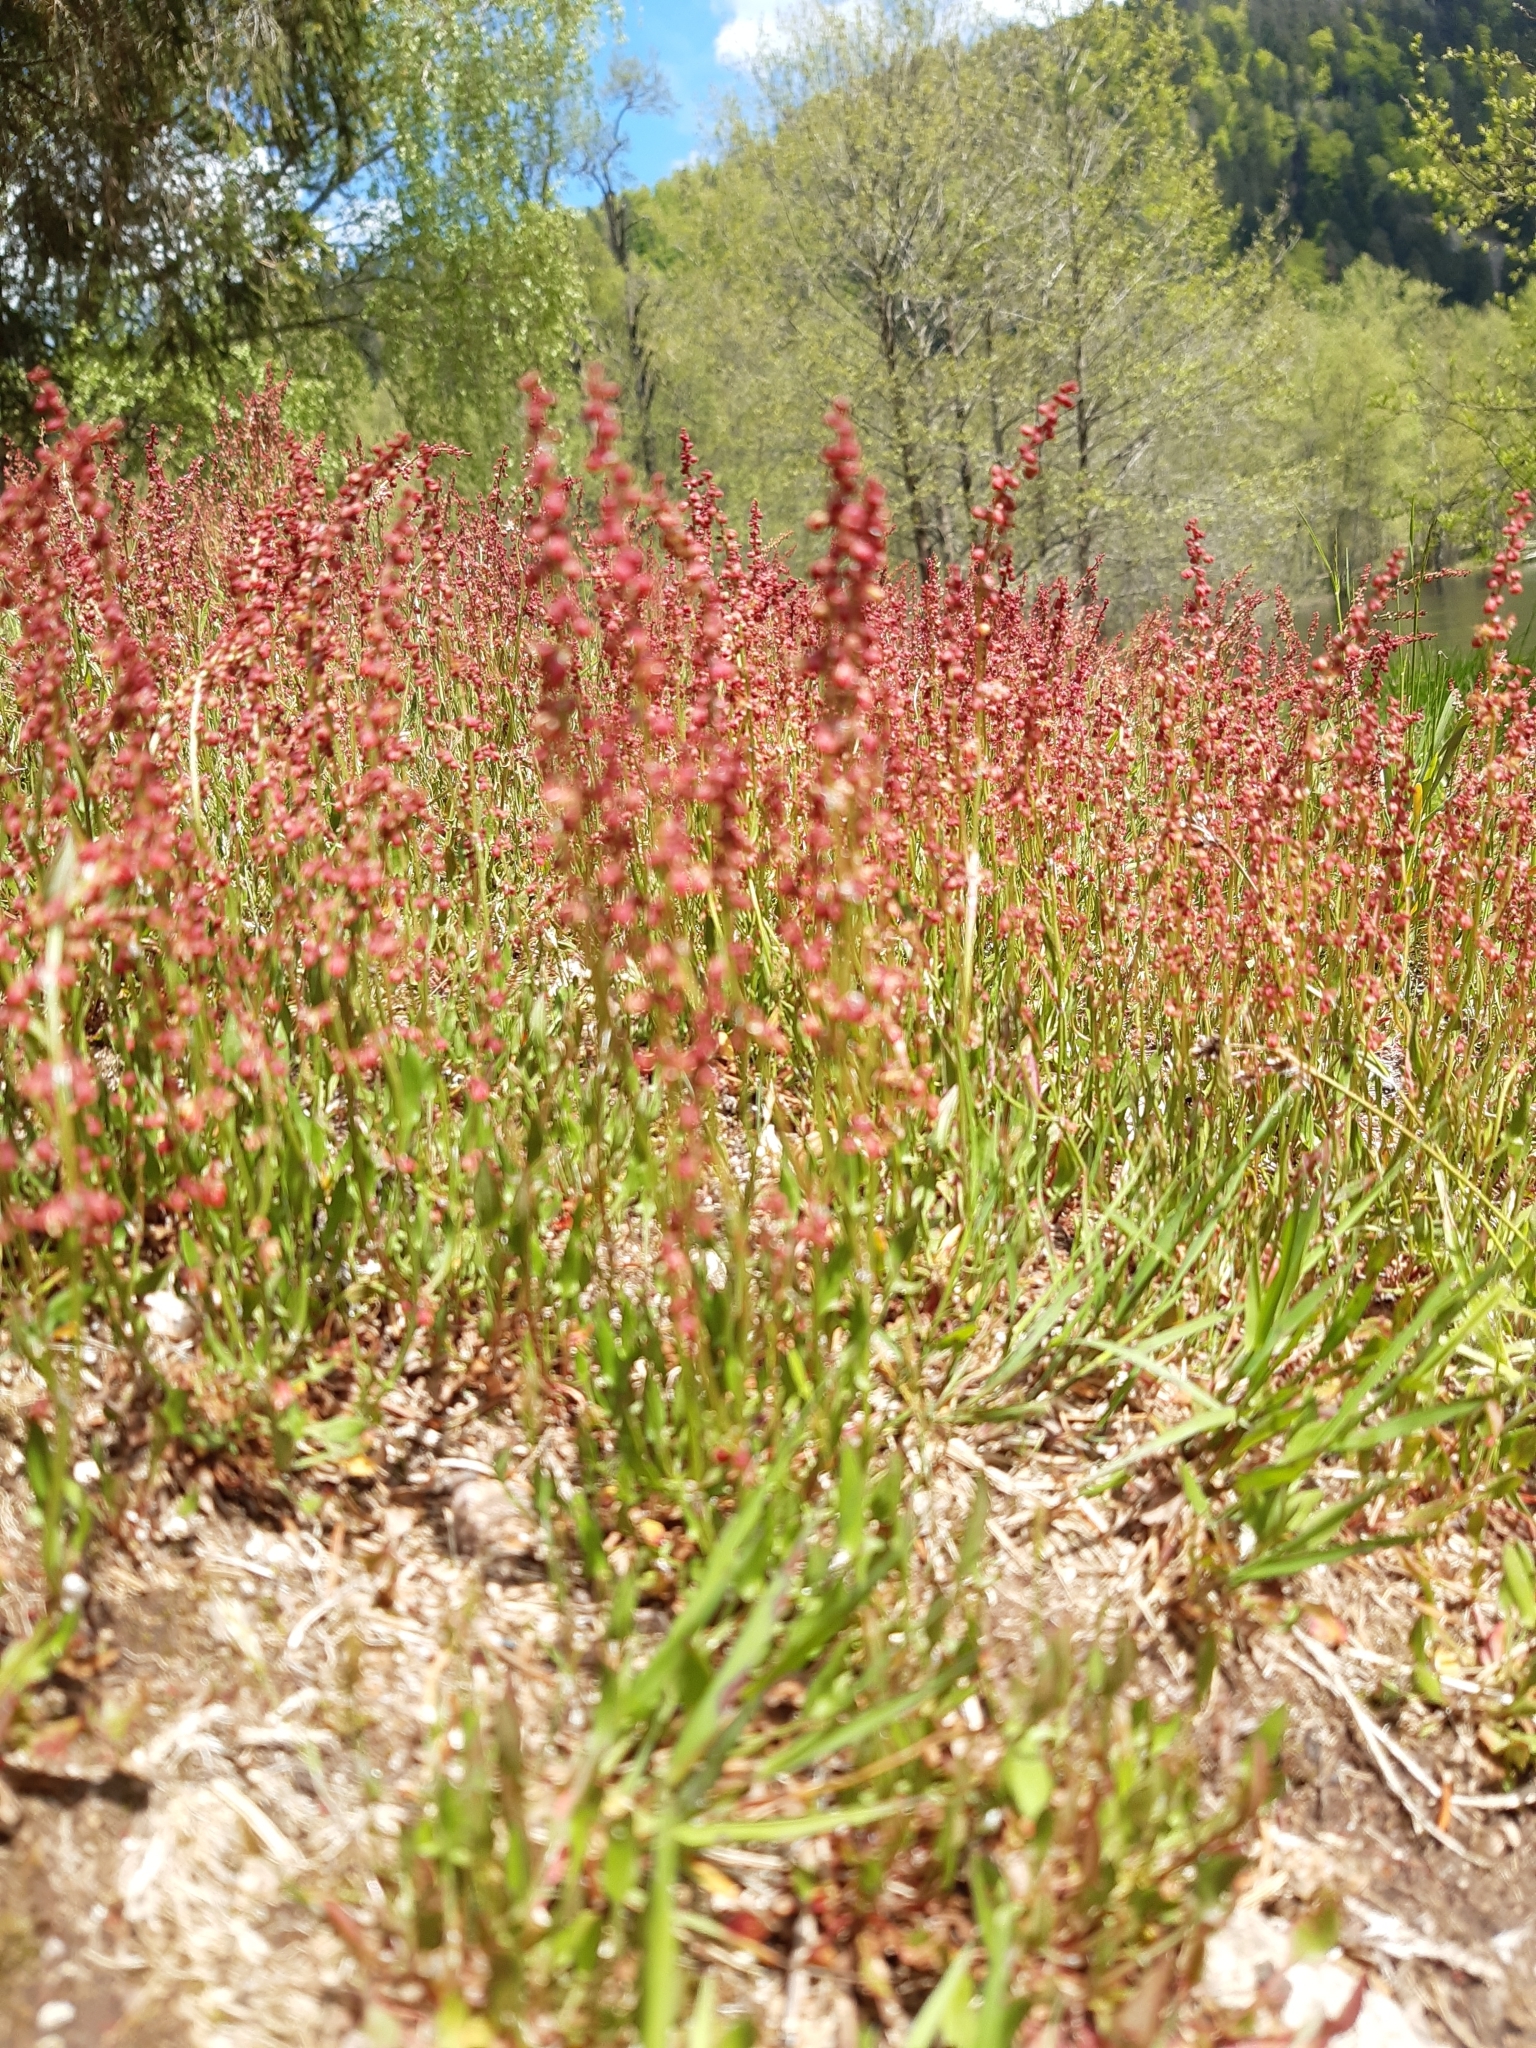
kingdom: Plantae
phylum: Tracheophyta
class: Magnoliopsida
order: Caryophyllales
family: Polygonaceae
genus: Rumex
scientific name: Rumex acetosella
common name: Common sheep sorrel
